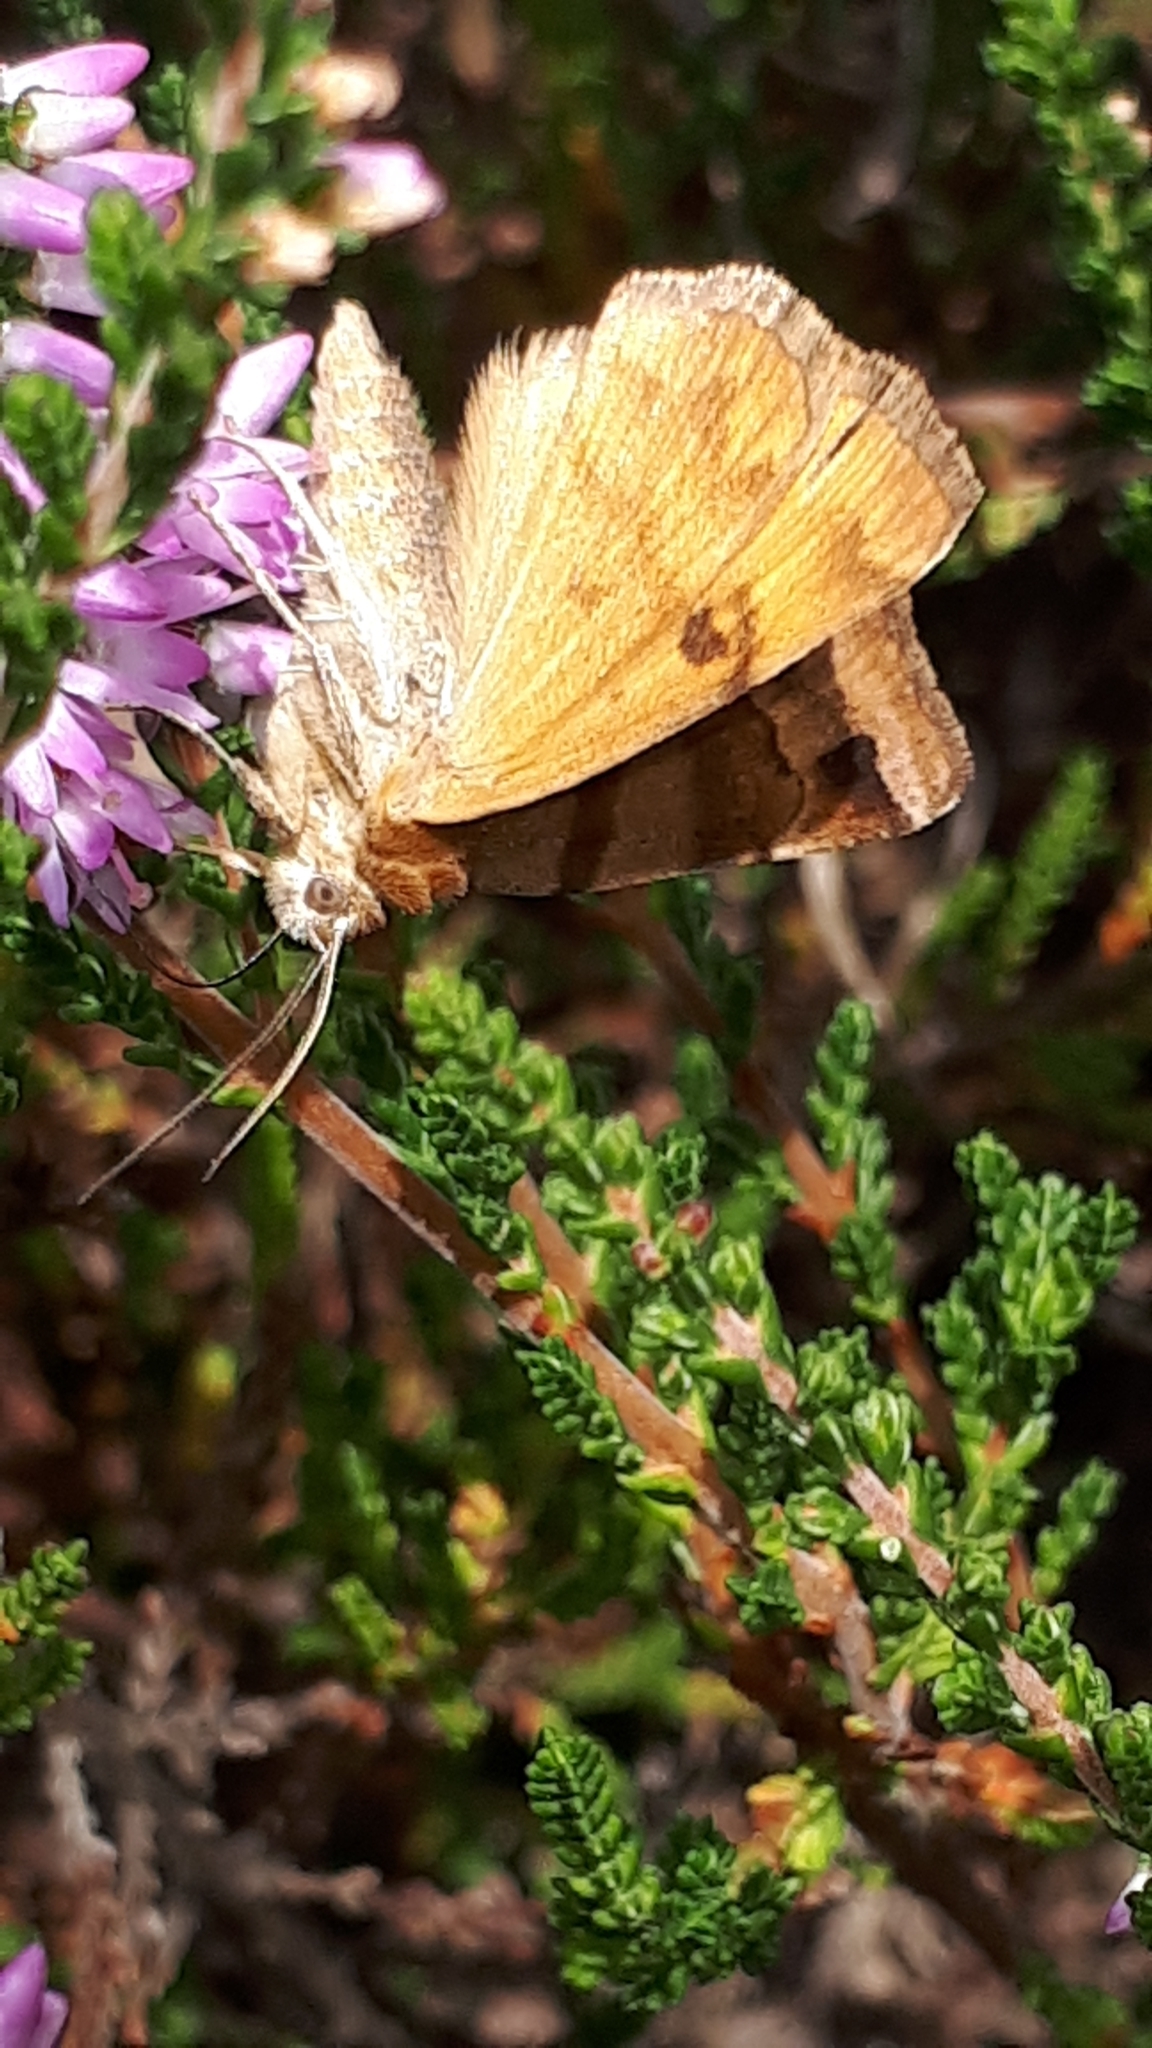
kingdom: Animalia
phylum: Arthropoda
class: Insecta
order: Lepidoptera
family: Erebidae
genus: Euclidia
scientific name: Euclidia glyphica
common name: Burnet companion
